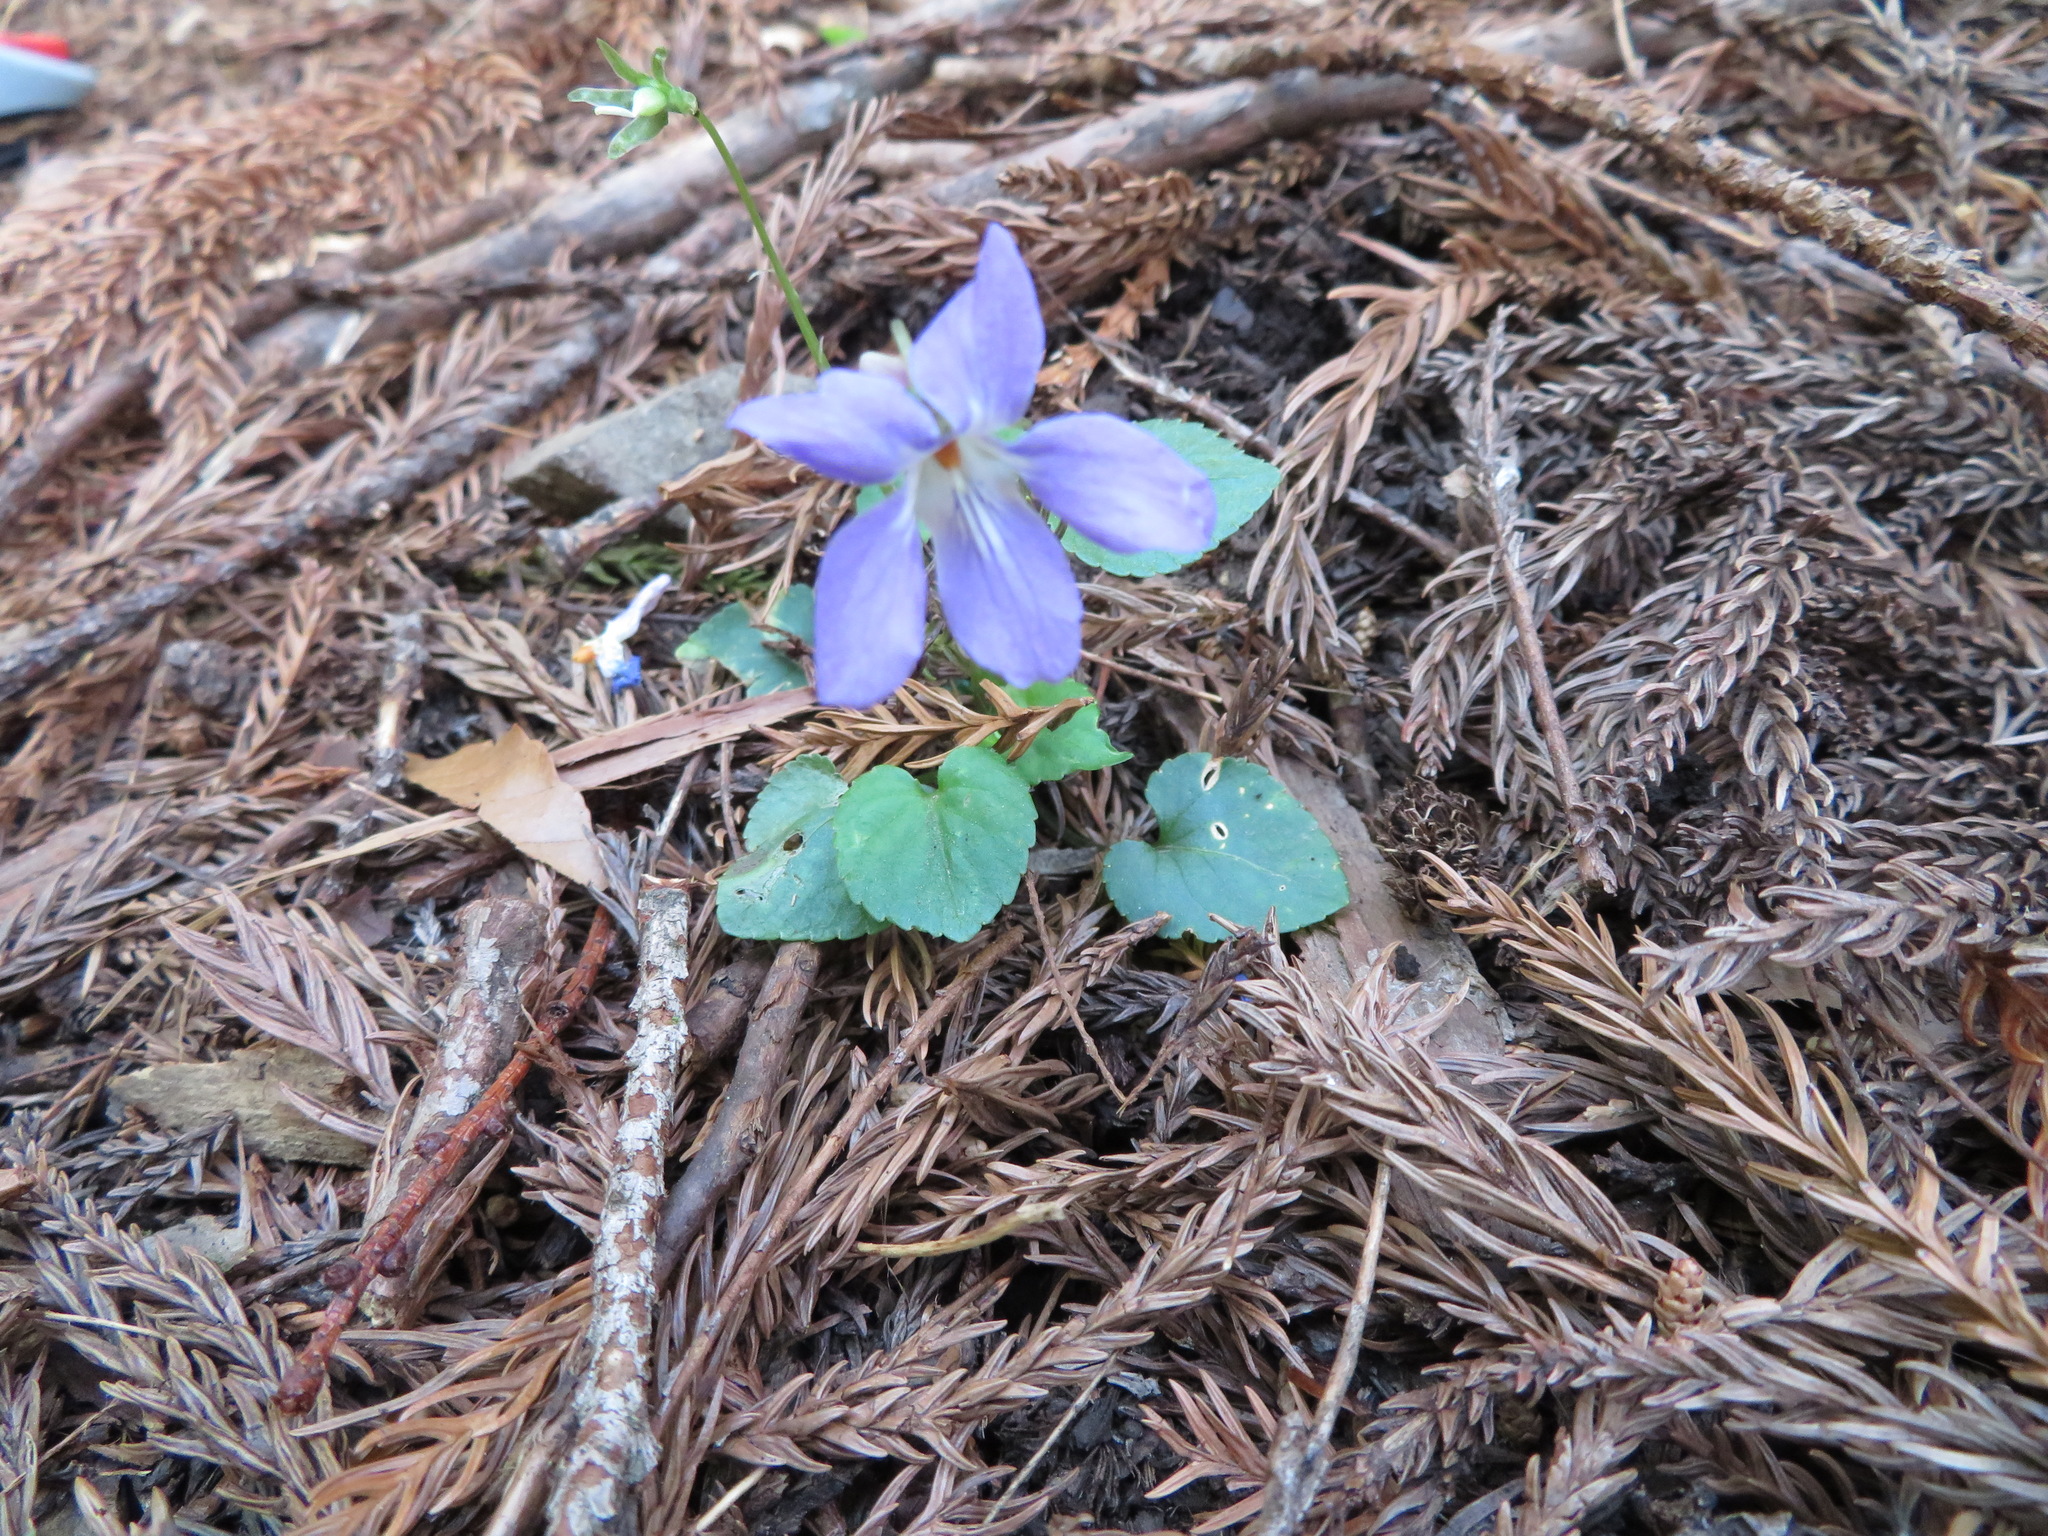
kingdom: Plantae
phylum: Tracheophyta
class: Magnoliopsida
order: Malpighiales
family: Violaceae
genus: Viola
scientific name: Viola grypoceras
